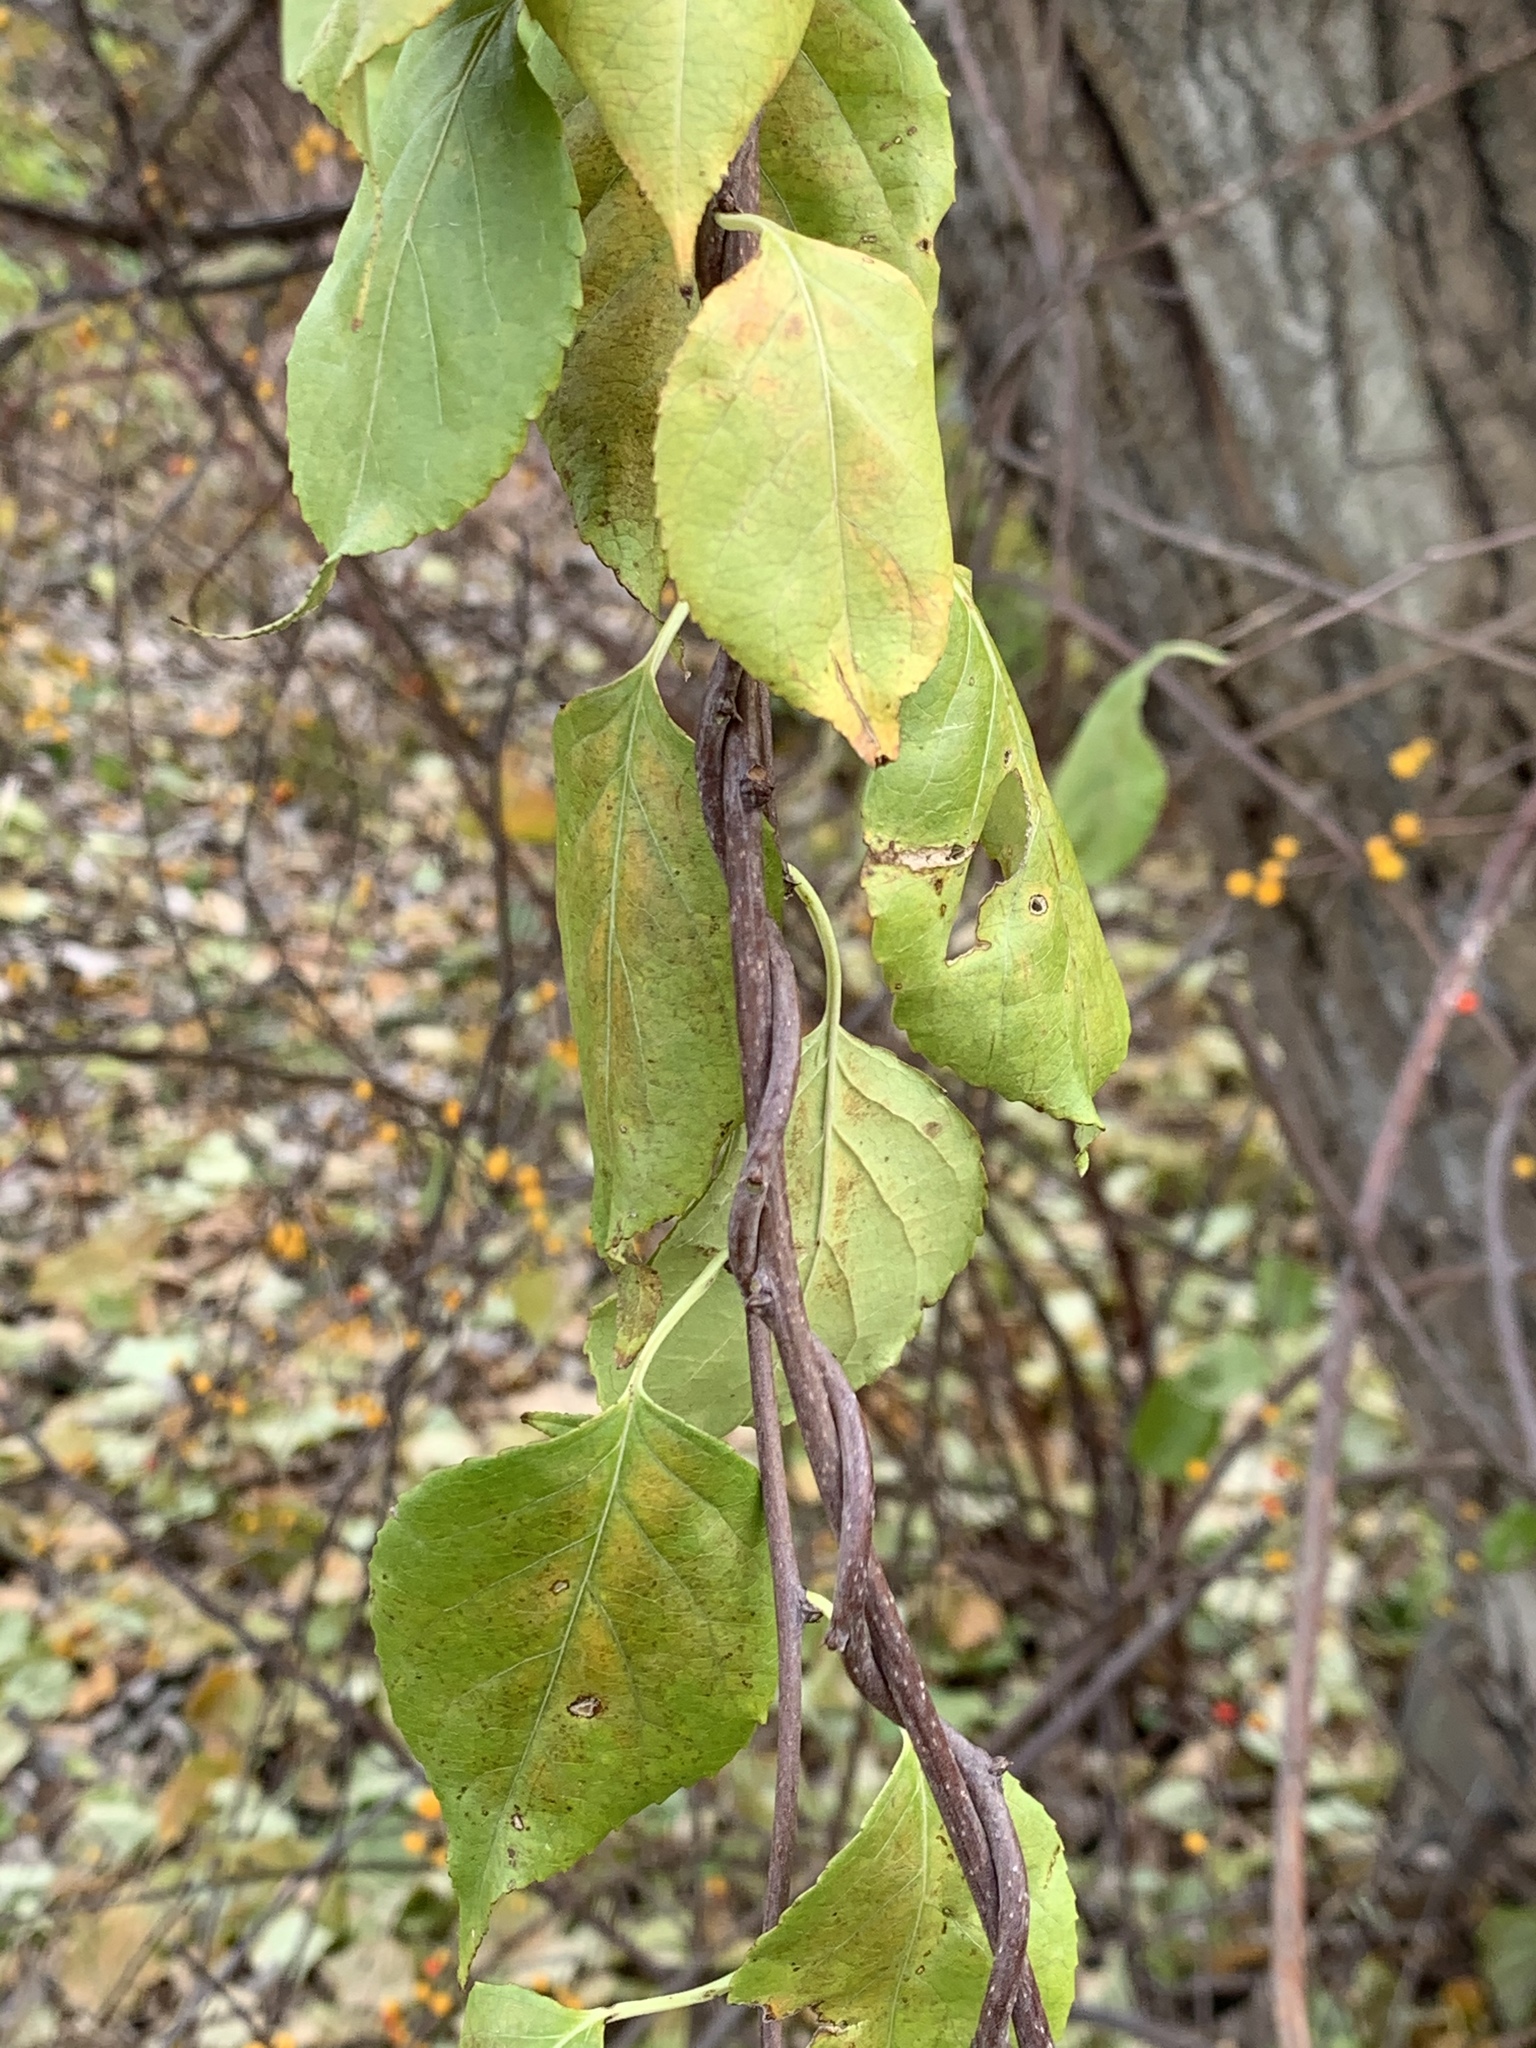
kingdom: Plantae
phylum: Tracheophyta
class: Magnoliopsida
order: Celastrales
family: Celastraceae
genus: Celastrus
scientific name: Celastrus orbiculatus
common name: Oriental bittersweet
